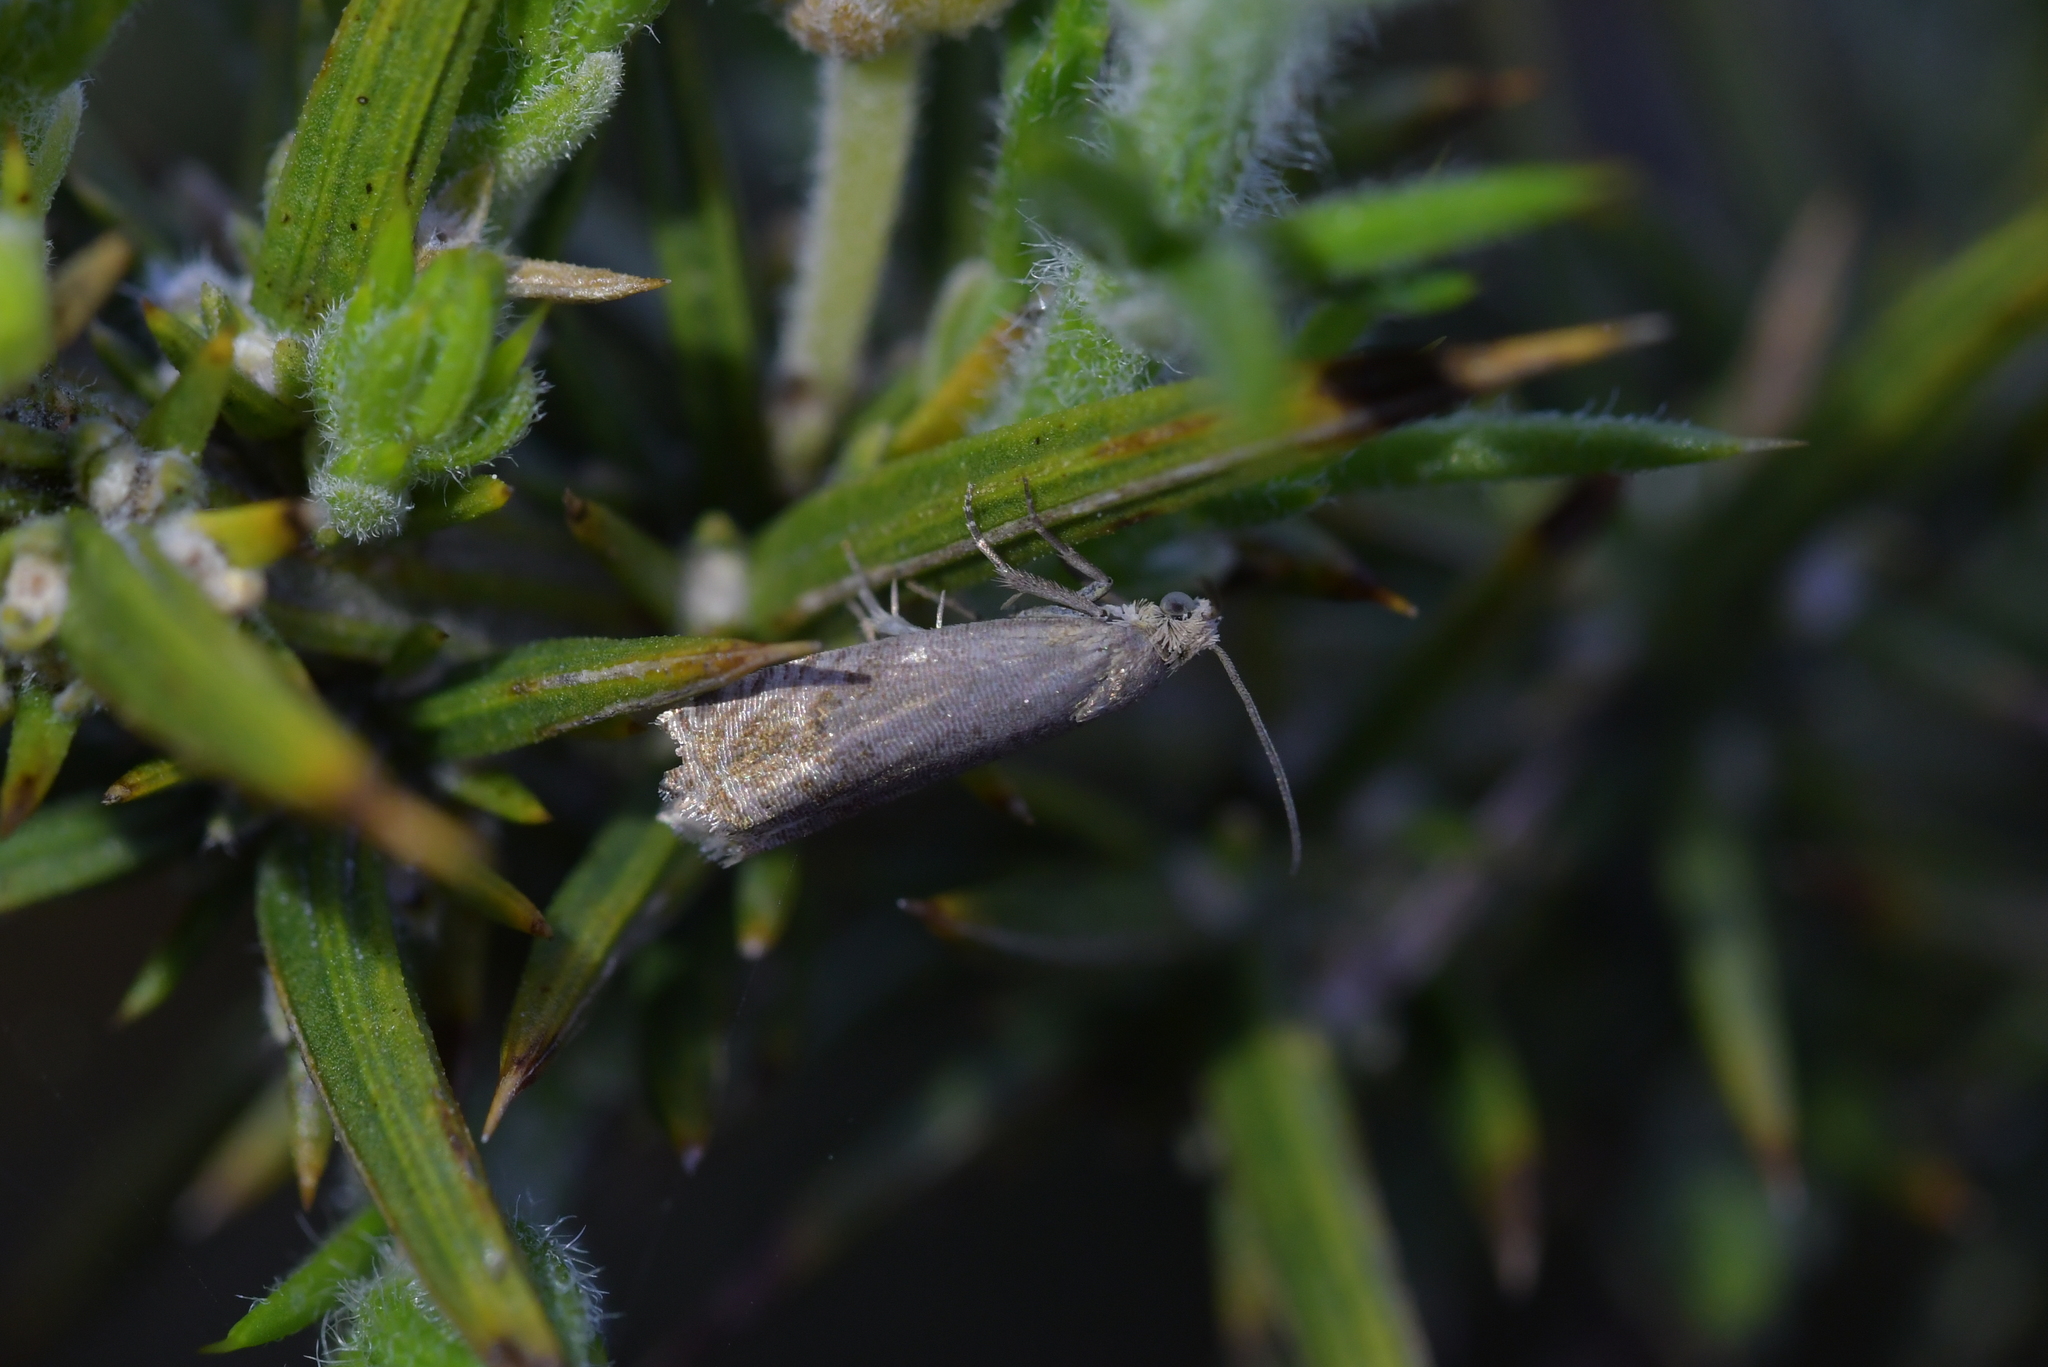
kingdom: Animalia
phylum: Arthropoda
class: Insecta
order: Lepidoptera
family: Tortricidae
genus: Cydia
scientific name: Cydia succedana
